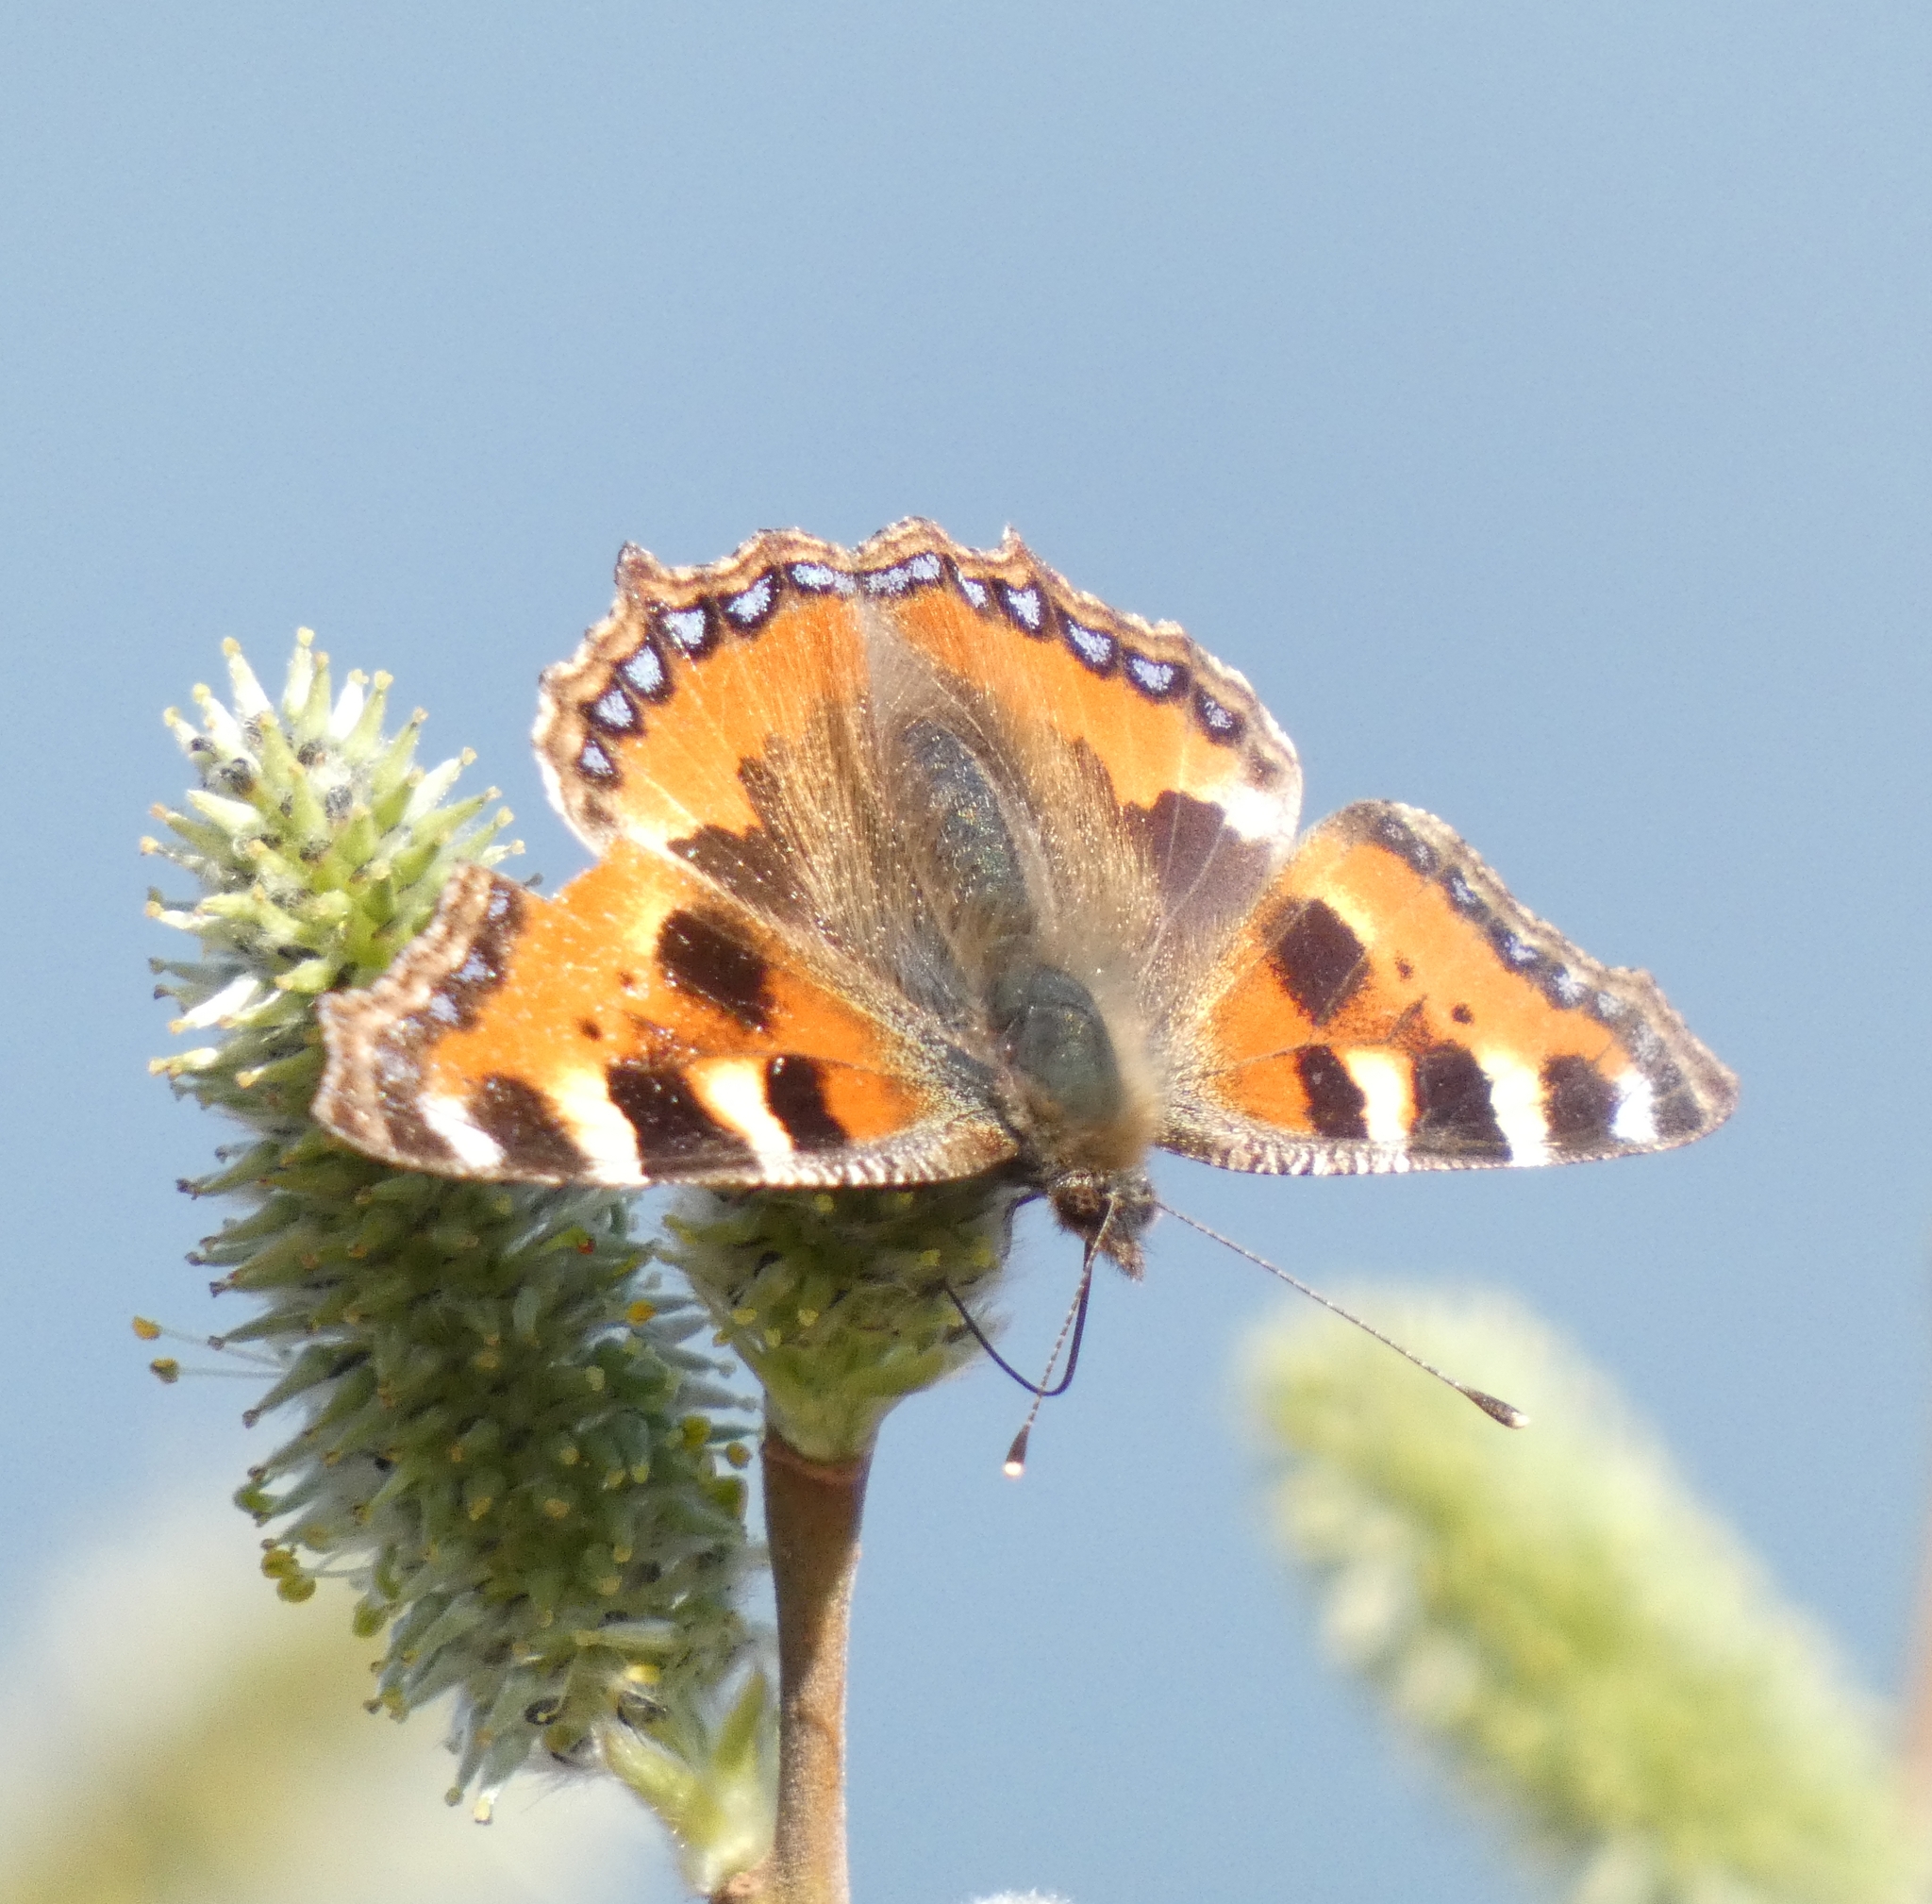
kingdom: Animalia
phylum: Arthropoda
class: Insecta
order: Lepidoptera
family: Nymphalidae
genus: Aglais
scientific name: Aglais urticae
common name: Small tortoiseshell
